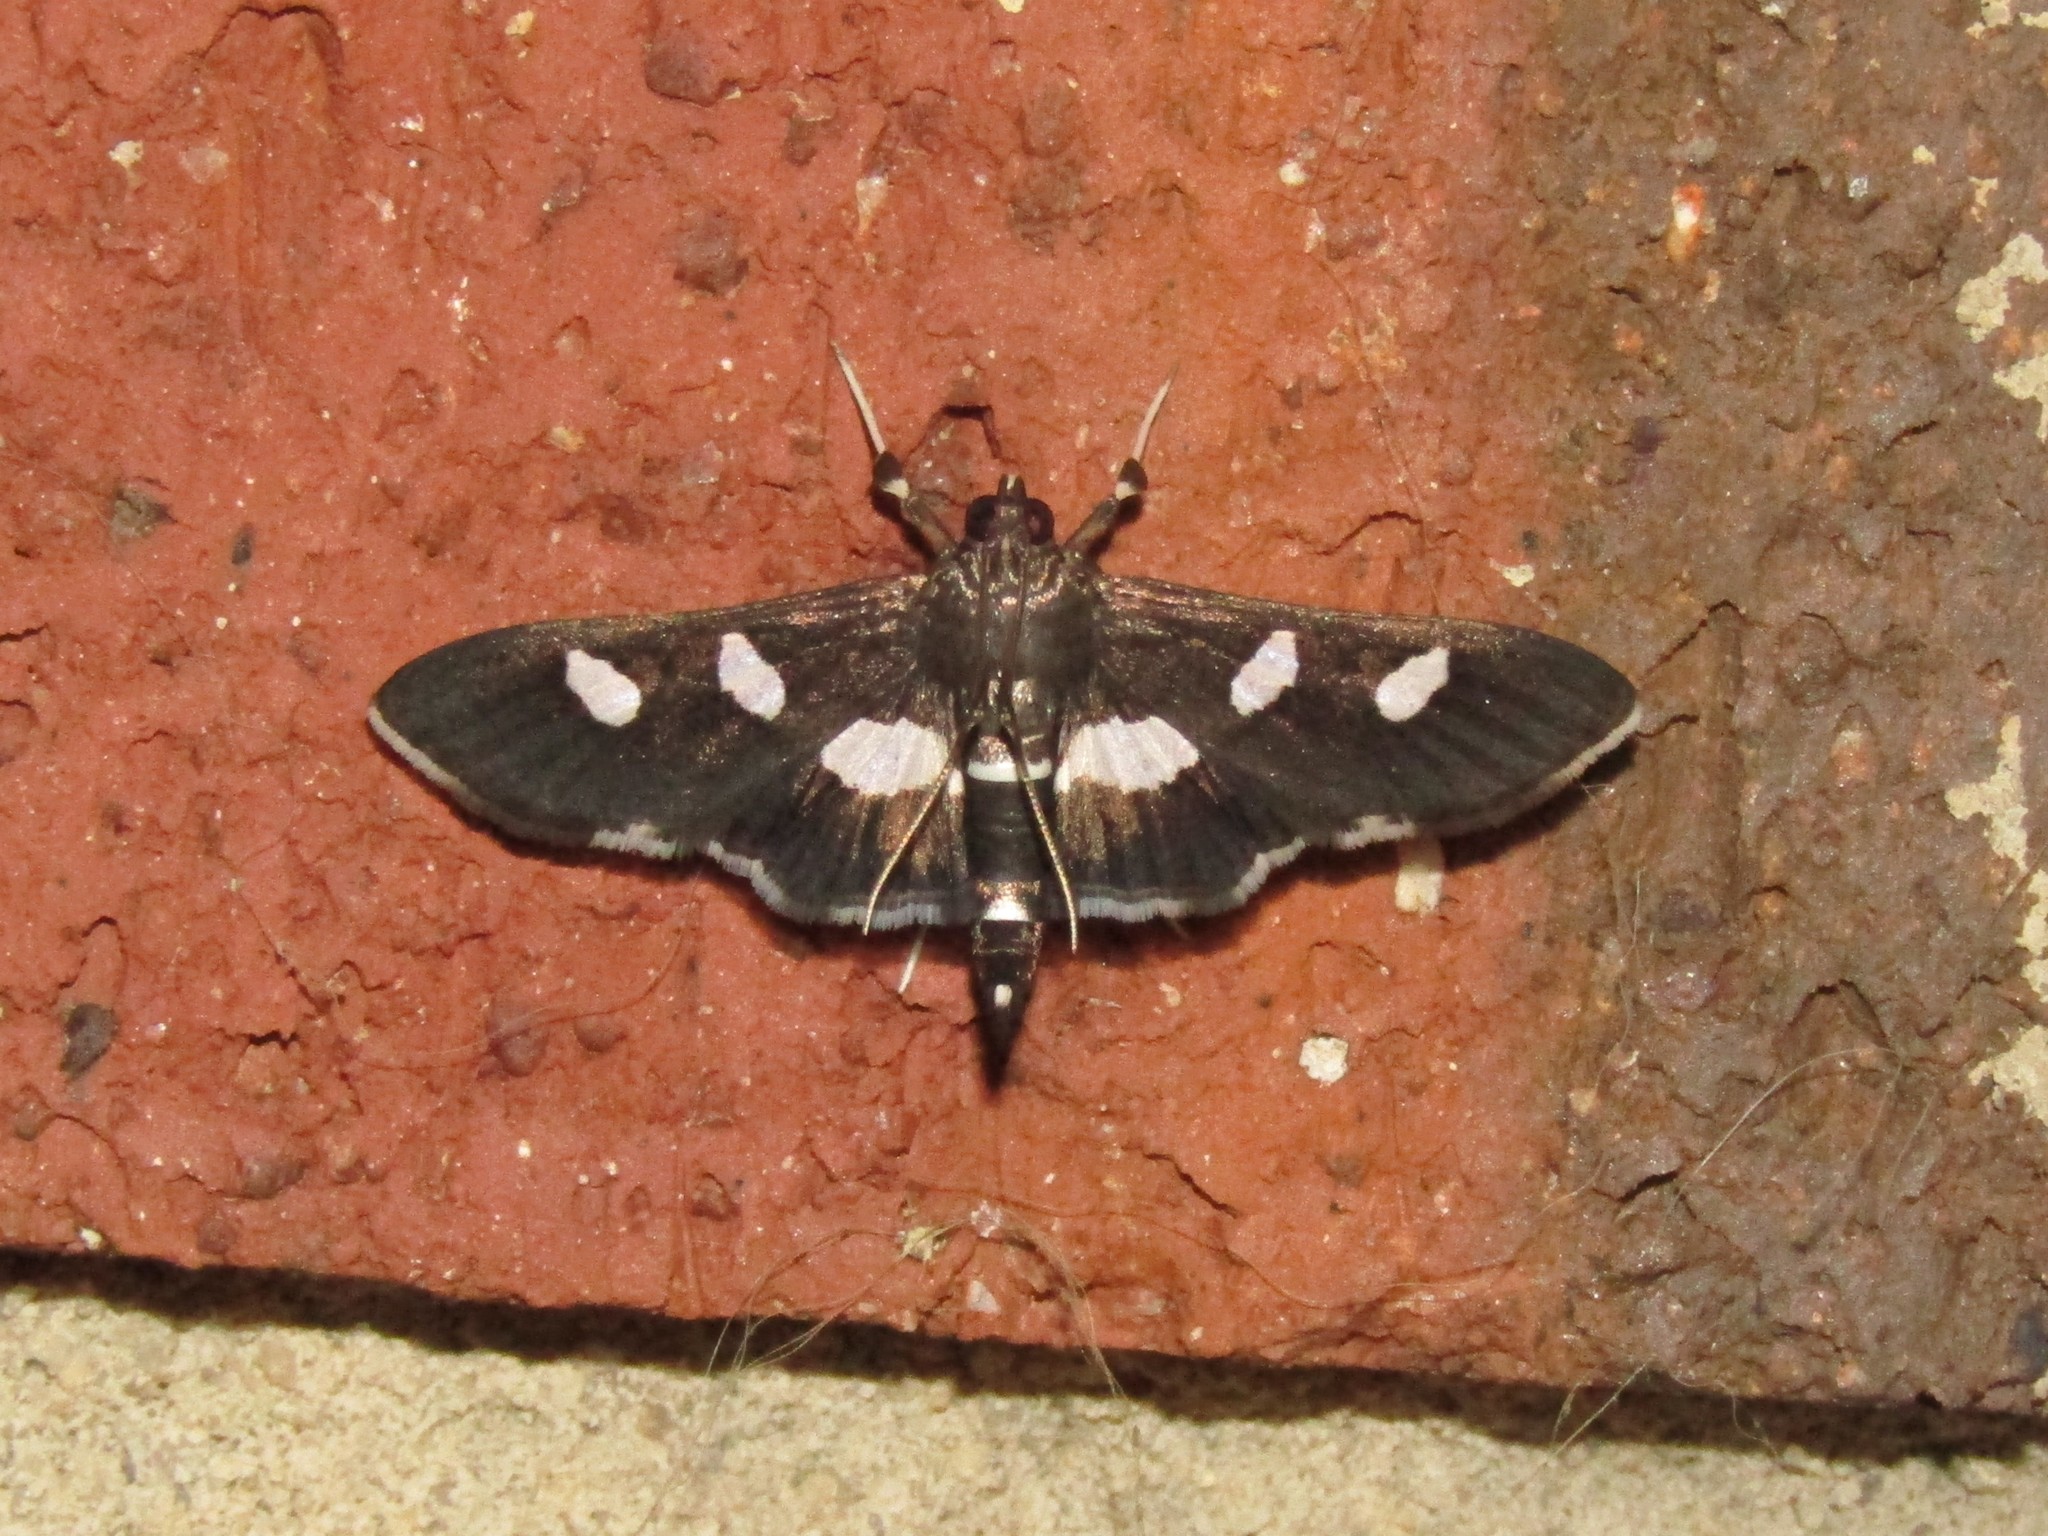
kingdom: Animalia
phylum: Arthropoda
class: Insecta
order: Lepidoptera
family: Crambidae
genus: Desmia
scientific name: Desmia
